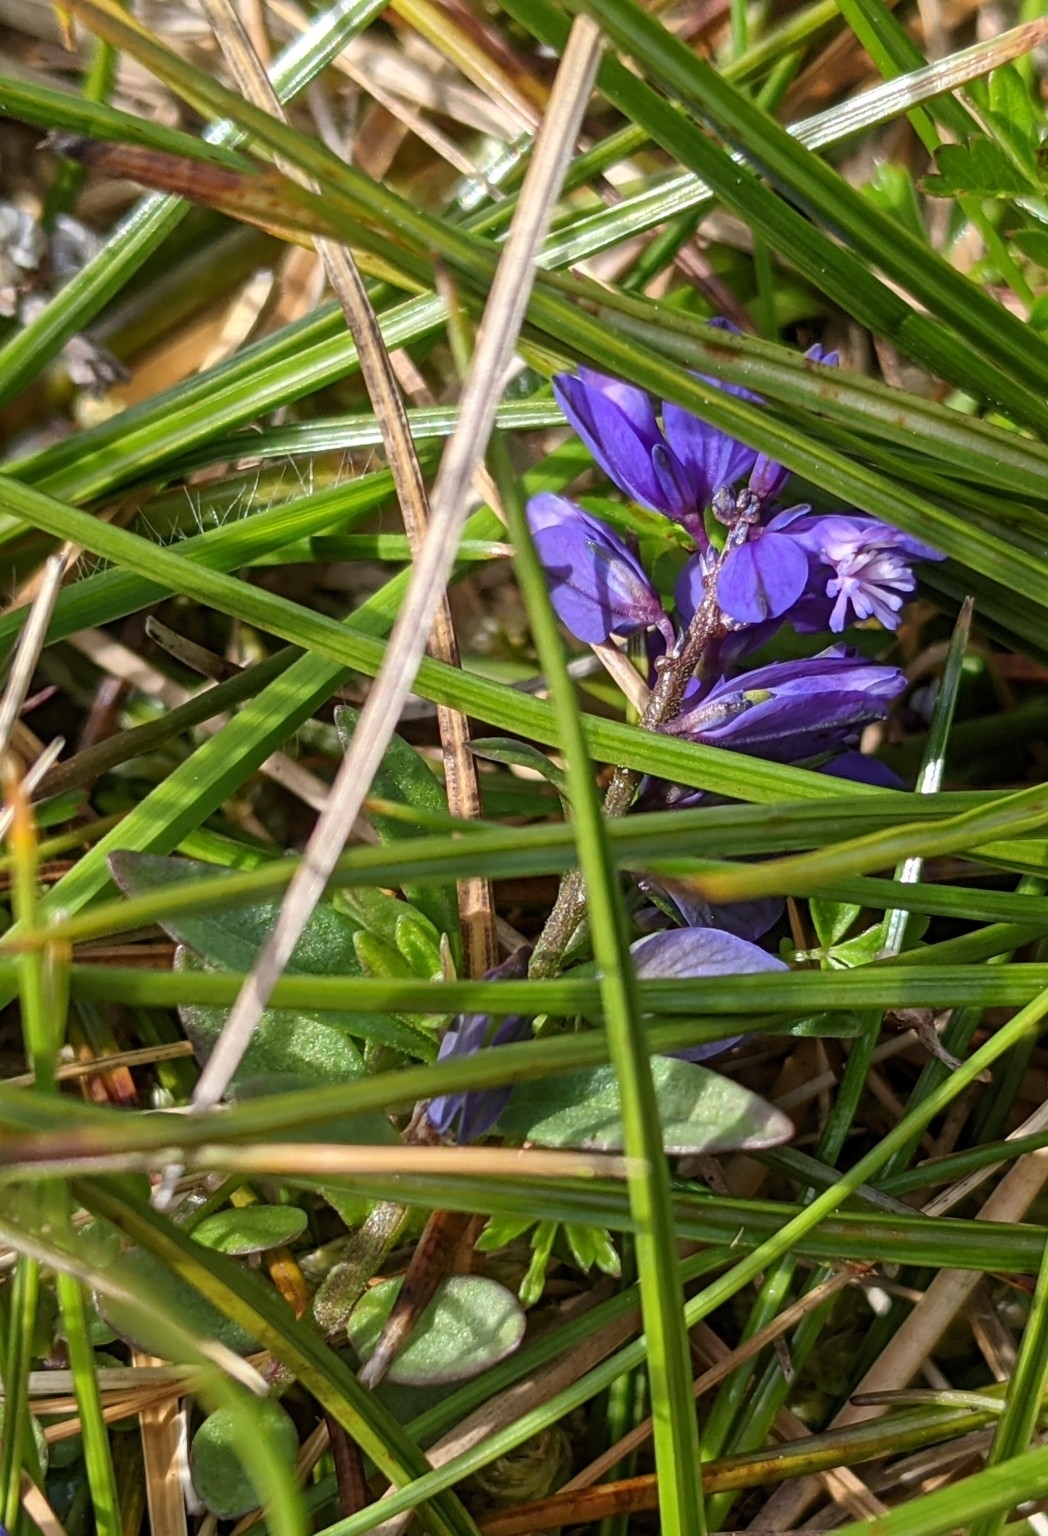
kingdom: Plantae
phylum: Tracheophyta
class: Magnoliopsida
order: Fabales
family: Polygalaceae
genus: Polygala
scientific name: Polygala vulgaris
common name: Common milkwort
